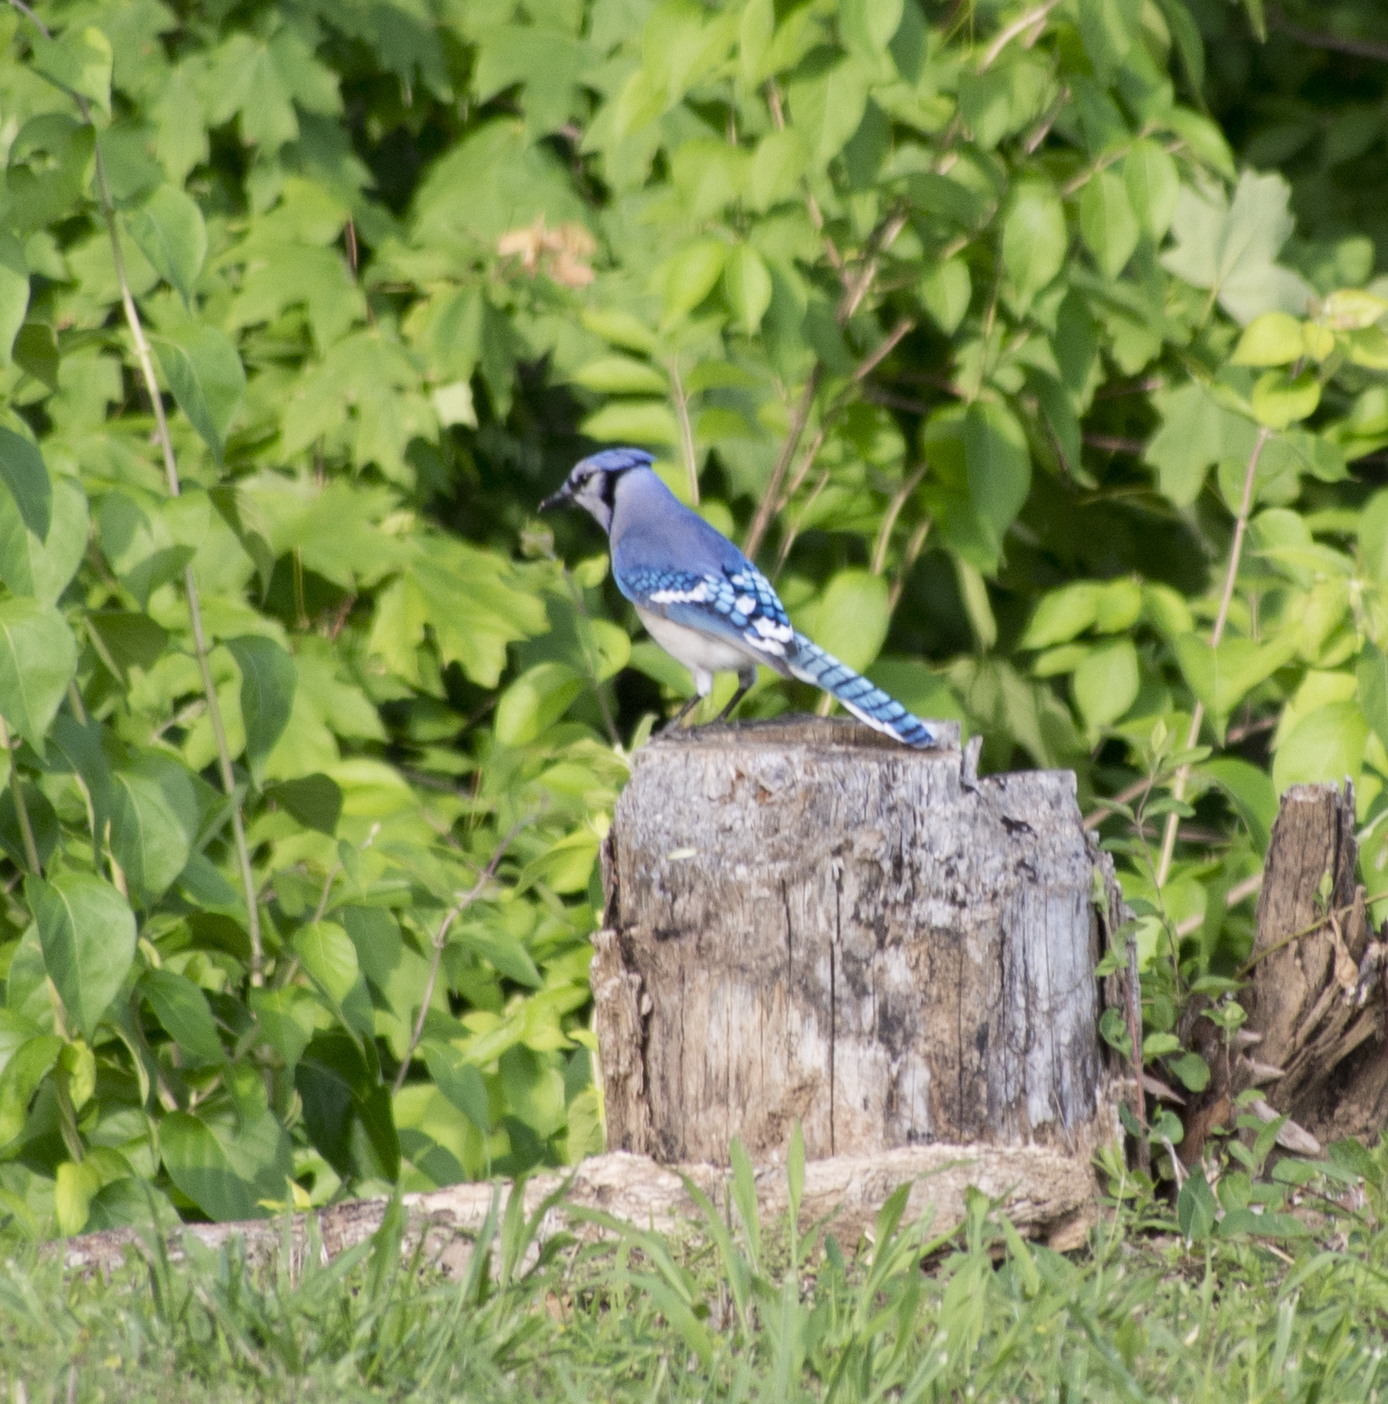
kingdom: Animalia
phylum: Chordata
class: Aves
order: Passeriformes
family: Corvidae
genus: Cyanocitta
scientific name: Cyanocitta cristata
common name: Blue jay
